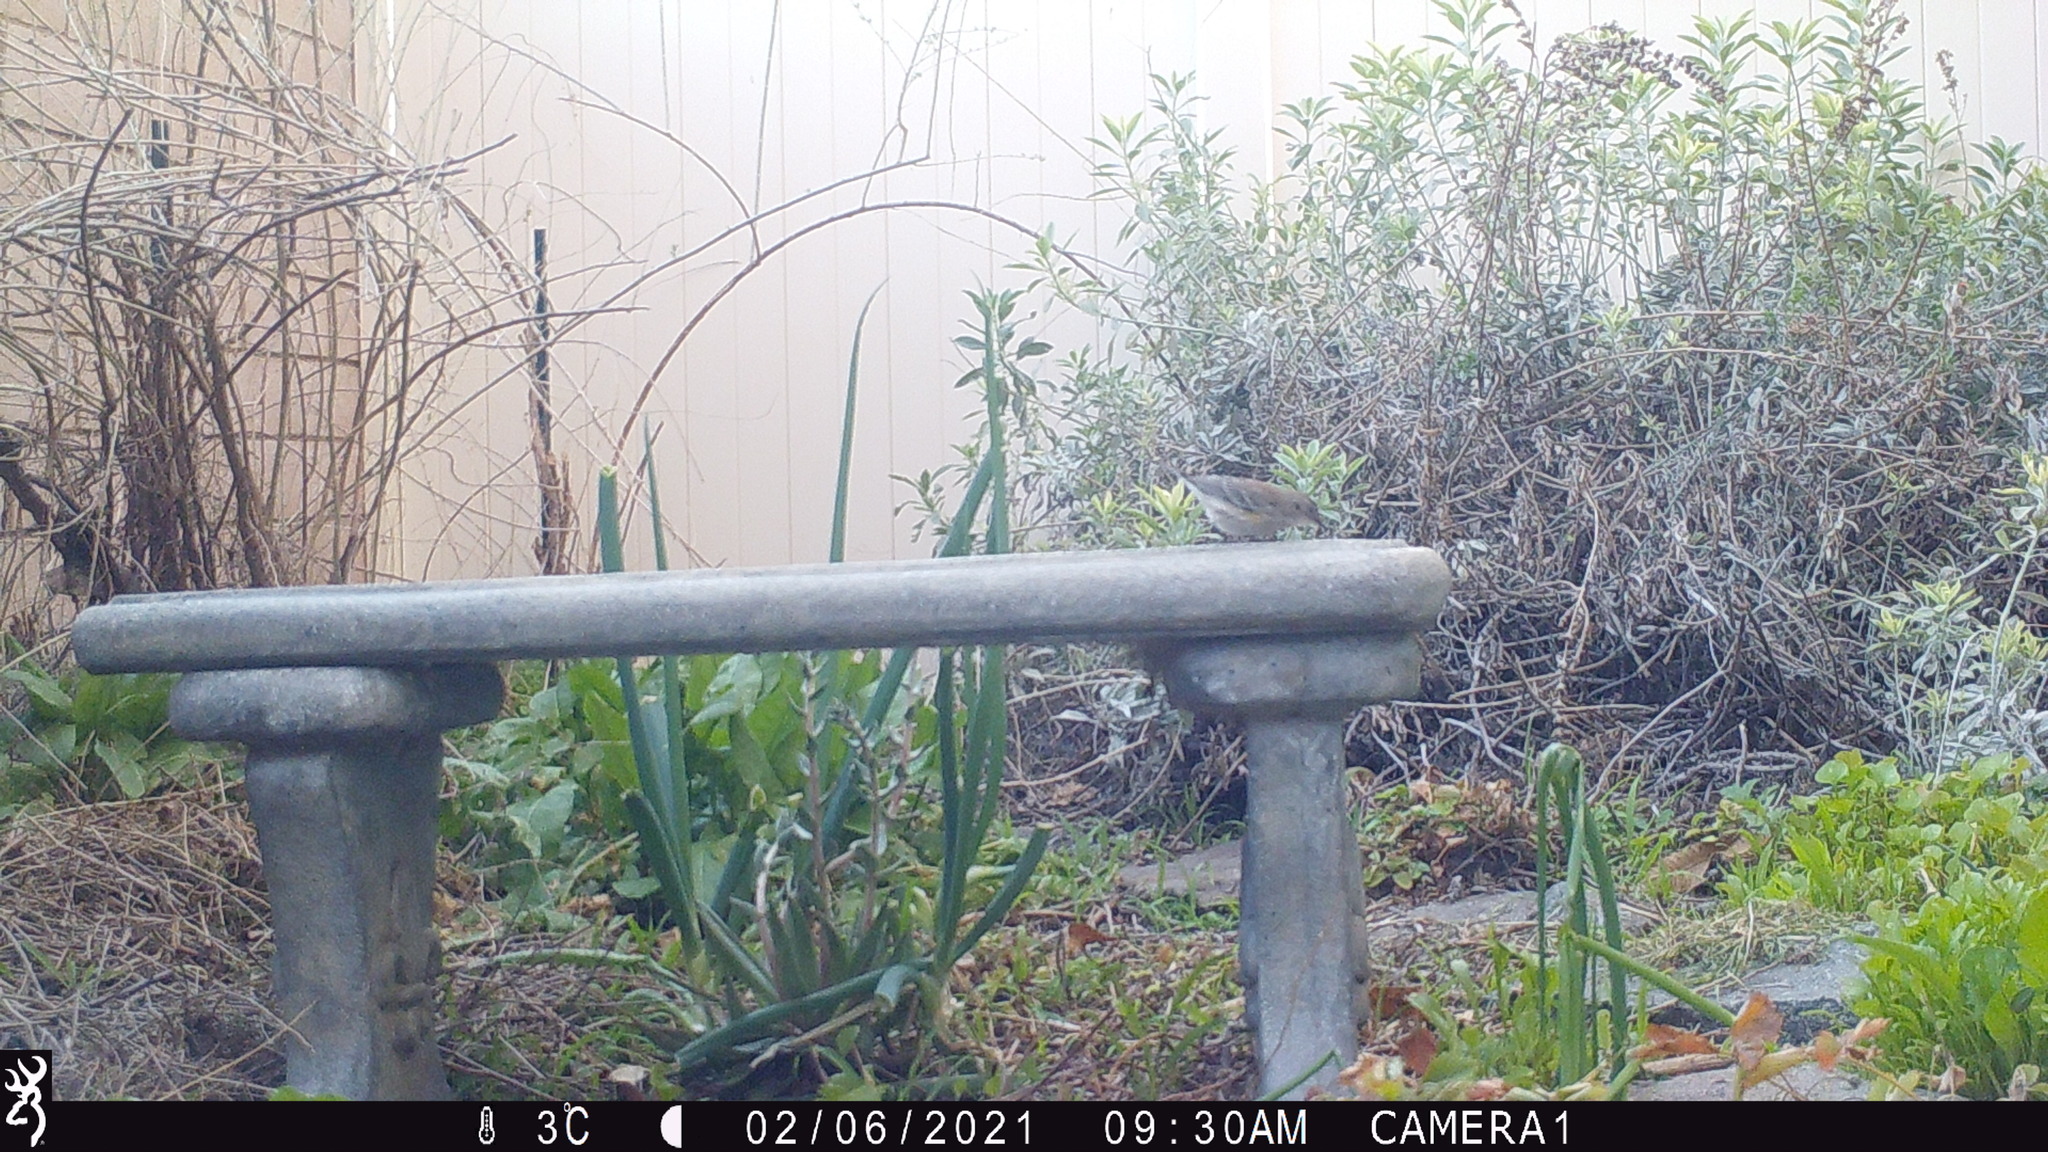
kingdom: Animalia
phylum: Chordata
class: Aves
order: Passeriformes
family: Parulidae
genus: Setophaga
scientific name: Setophaga coronata
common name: Myrtle warbler
